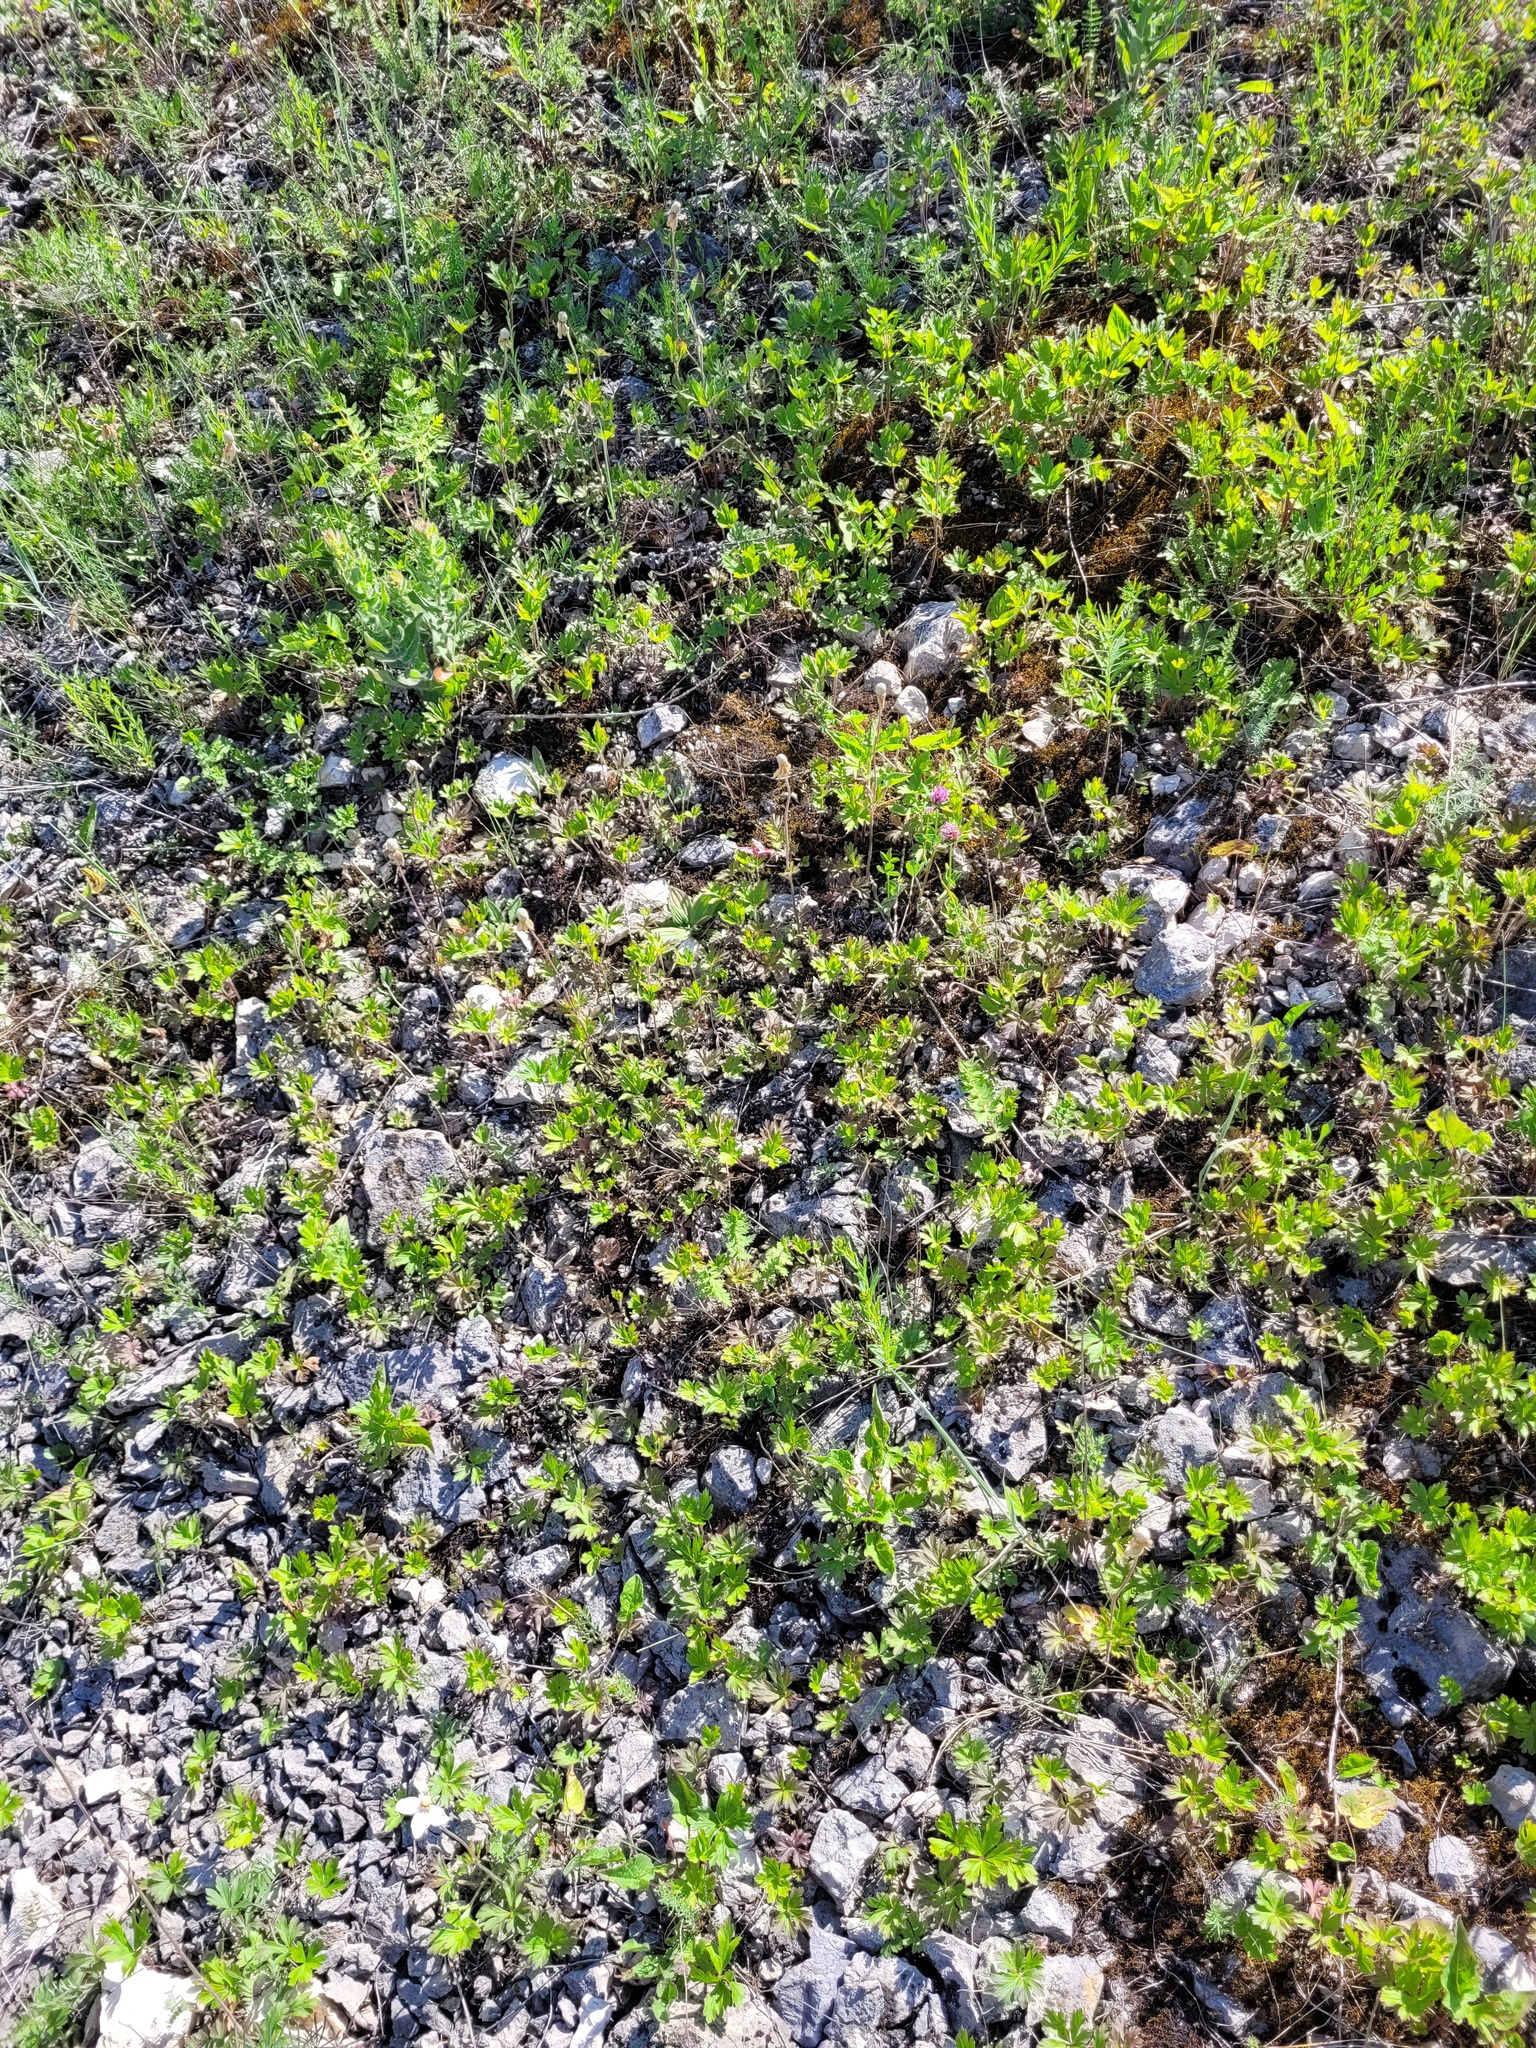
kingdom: Plantae
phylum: Tracheophyta
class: Magnoliopsida
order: Ranunculales
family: Ranunculaceae
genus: Anemone
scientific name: Anemone sylvestris
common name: Snowdrop anemone
